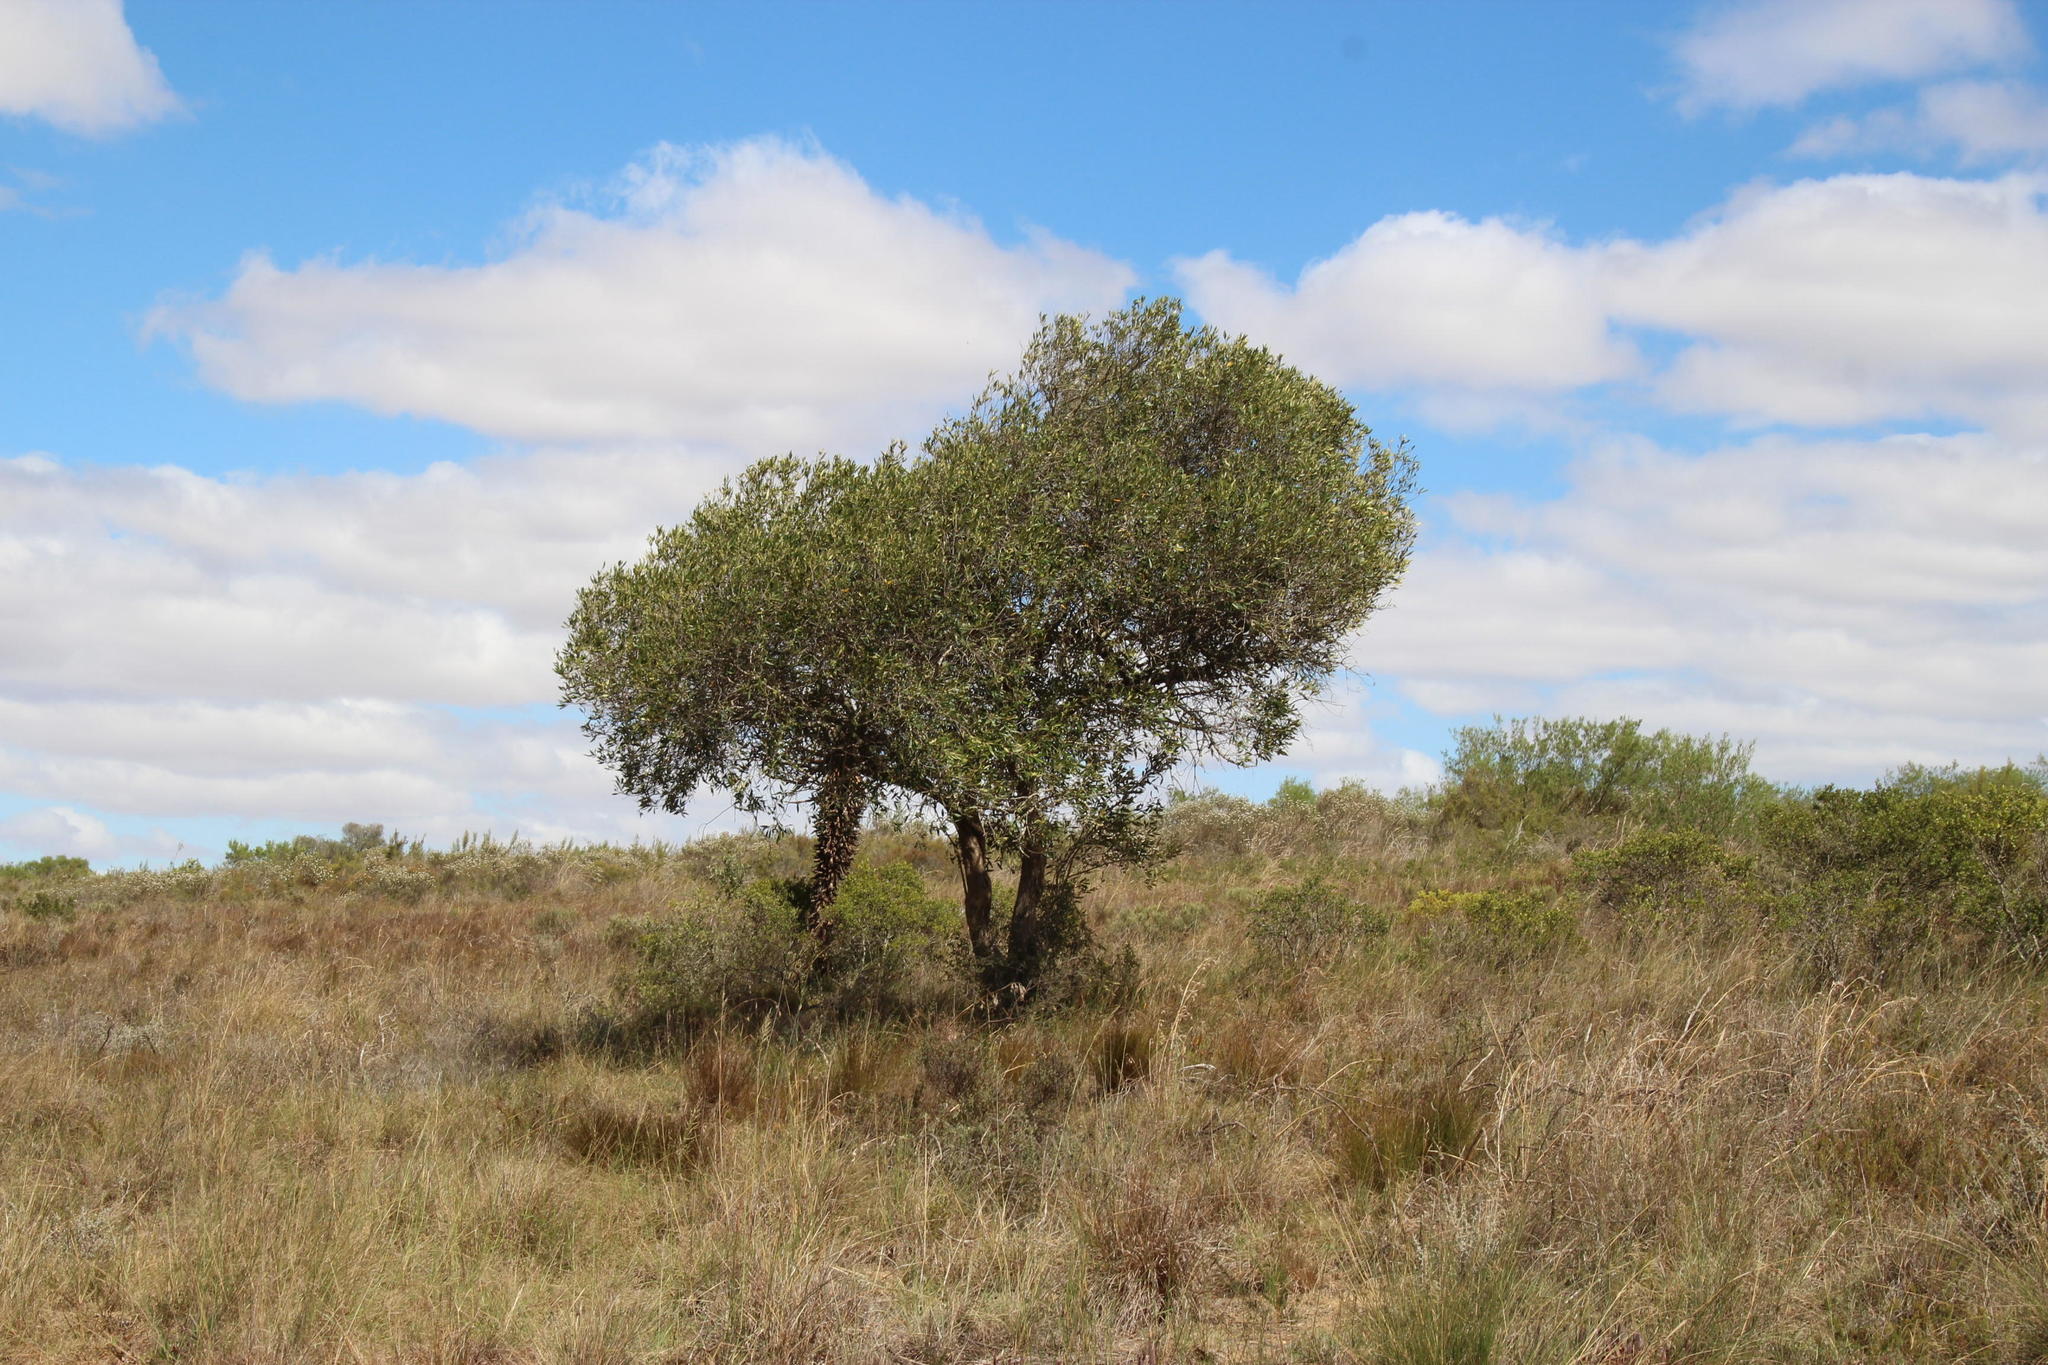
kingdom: Plantae
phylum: Tracheophyta
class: Magnoliopsida
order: Lamiales
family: Oleaceae
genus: Olea
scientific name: Olea europaea
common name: Olive
